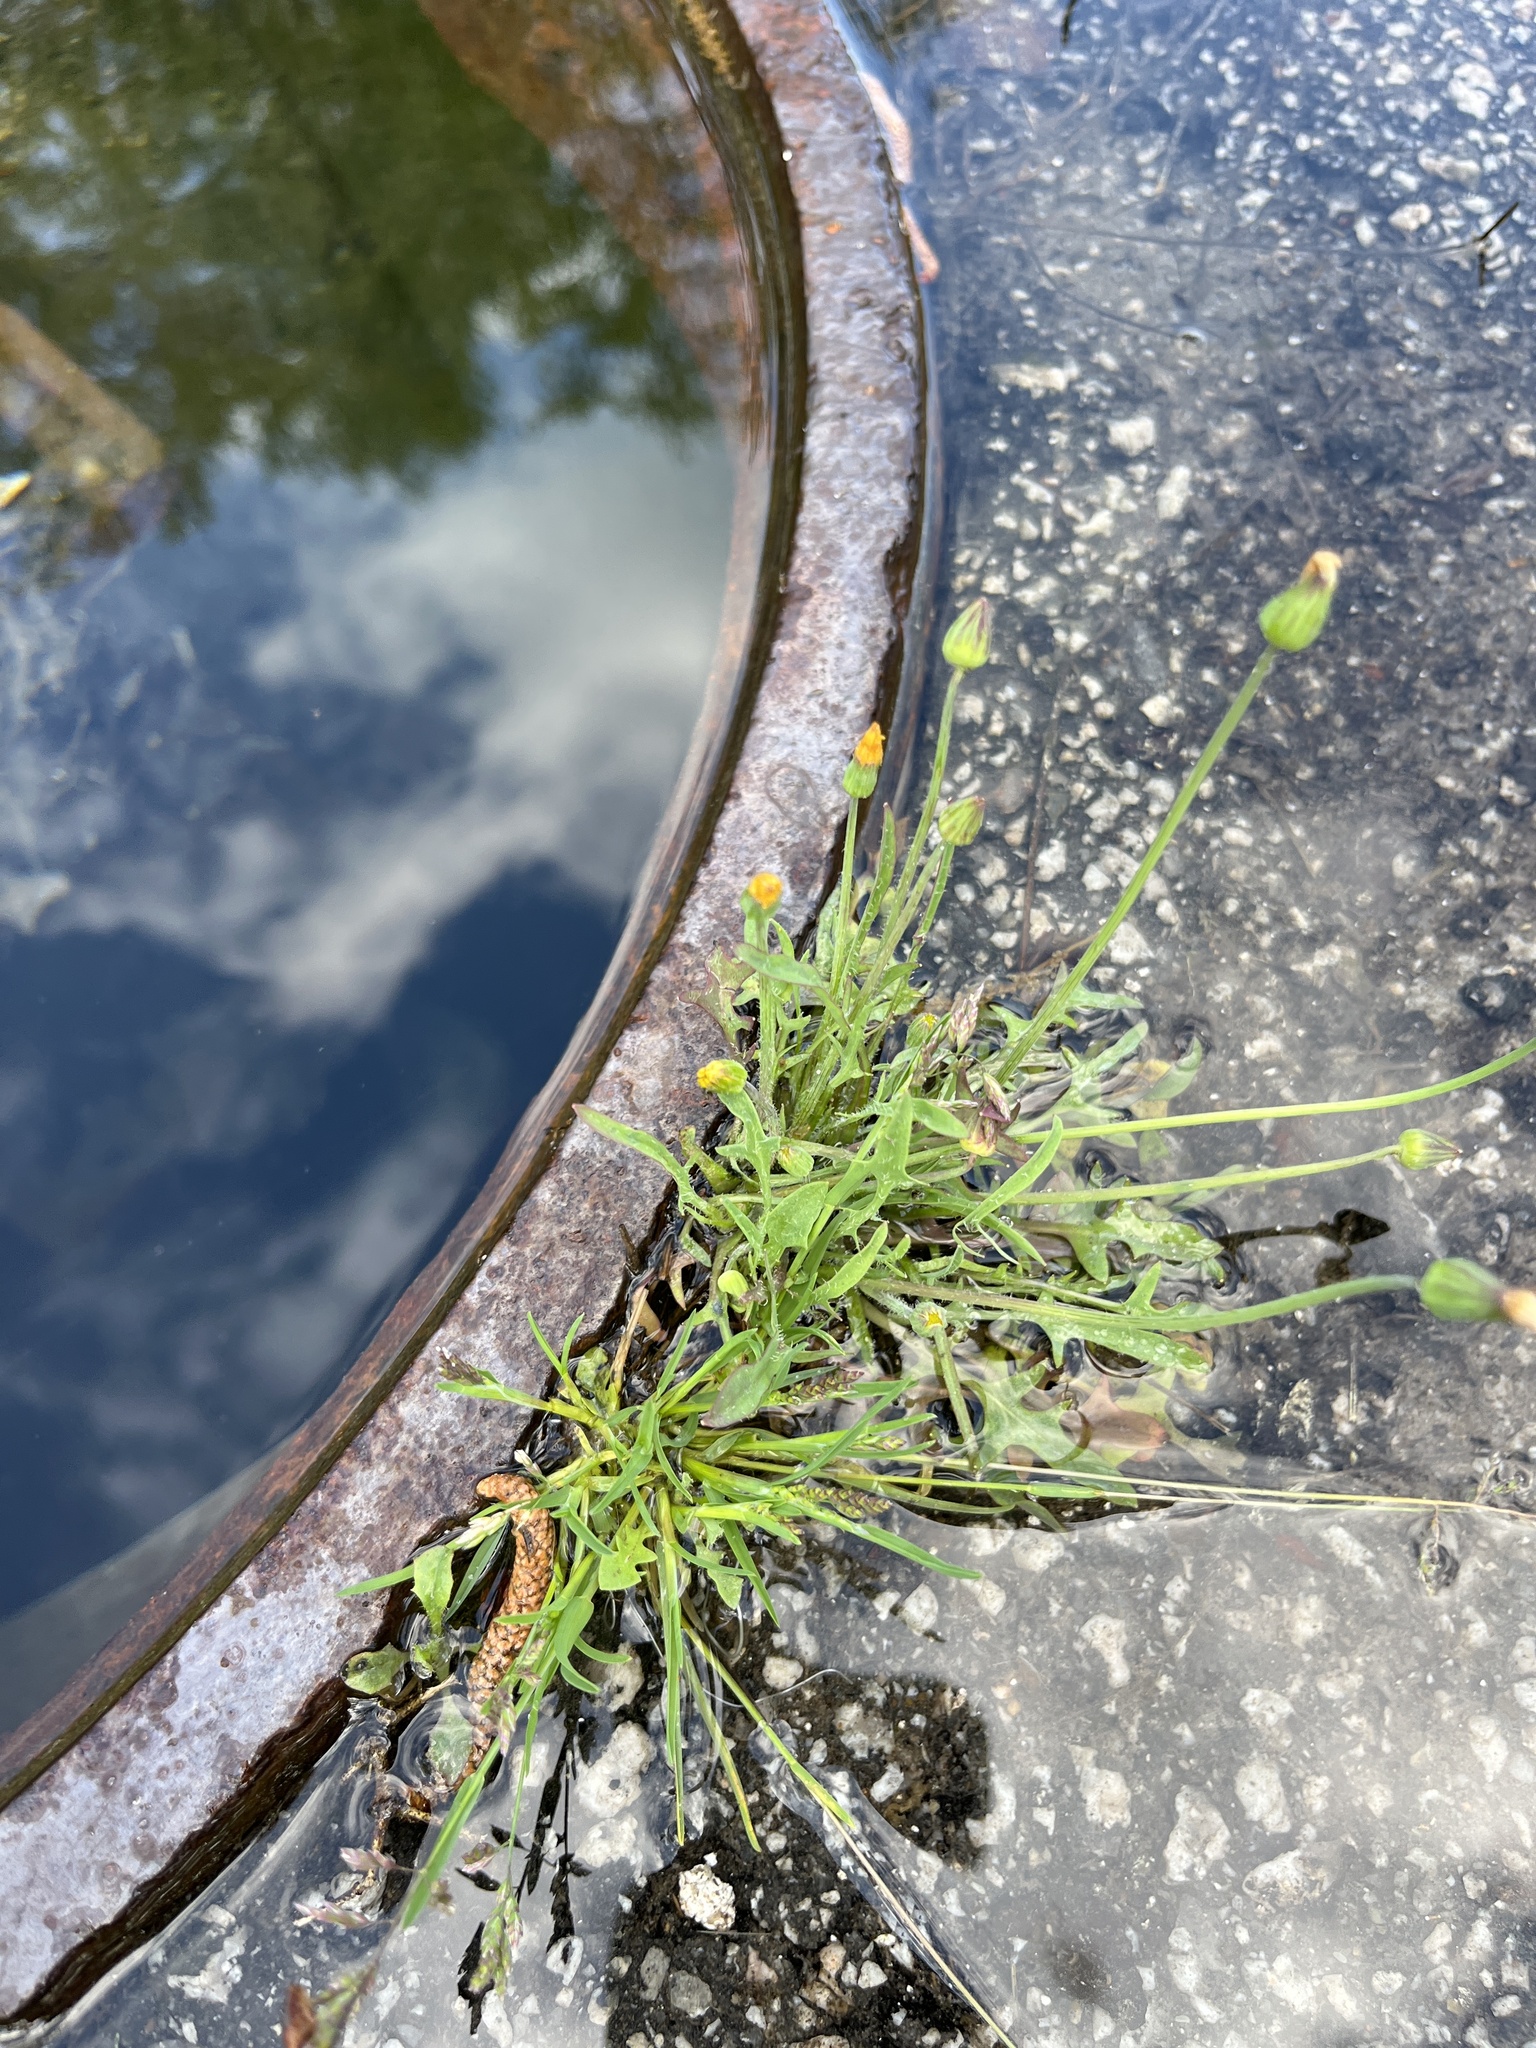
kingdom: Plantae
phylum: Tracheophyta
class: Magnoliopsida
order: Asterales
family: Asteraceae
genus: Krigia
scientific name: Krigia virginica
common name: Virginia dwarf-dandelion
